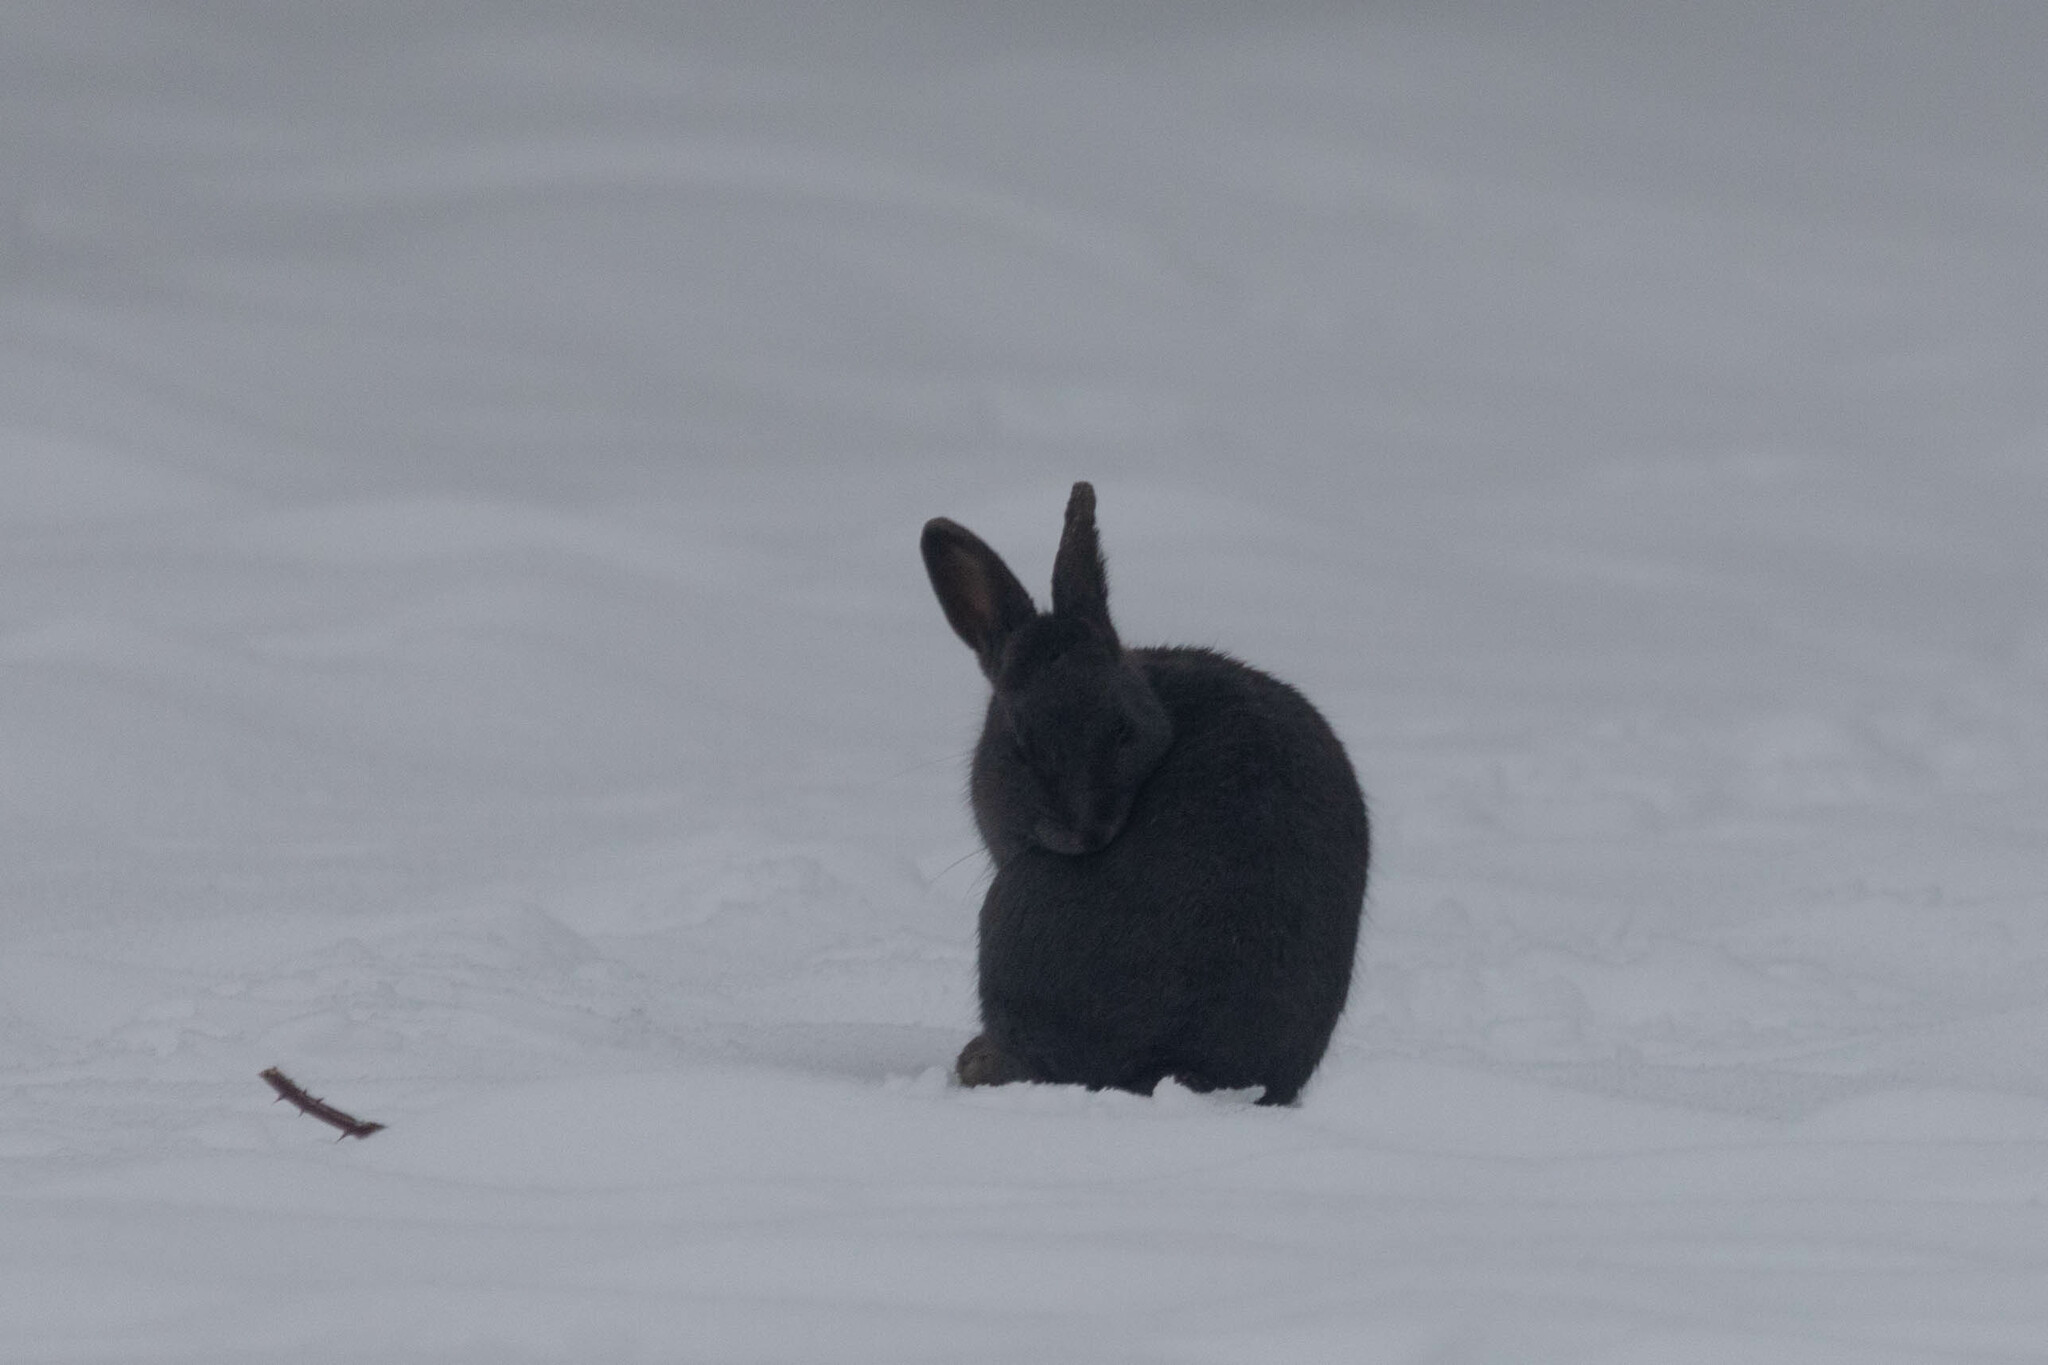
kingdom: Animalia
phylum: Chordata
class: Mammalia
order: Lagomorpha
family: Leporidae
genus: Oryctolagus
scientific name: Oryctolagus cuniculus
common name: European rabbit
